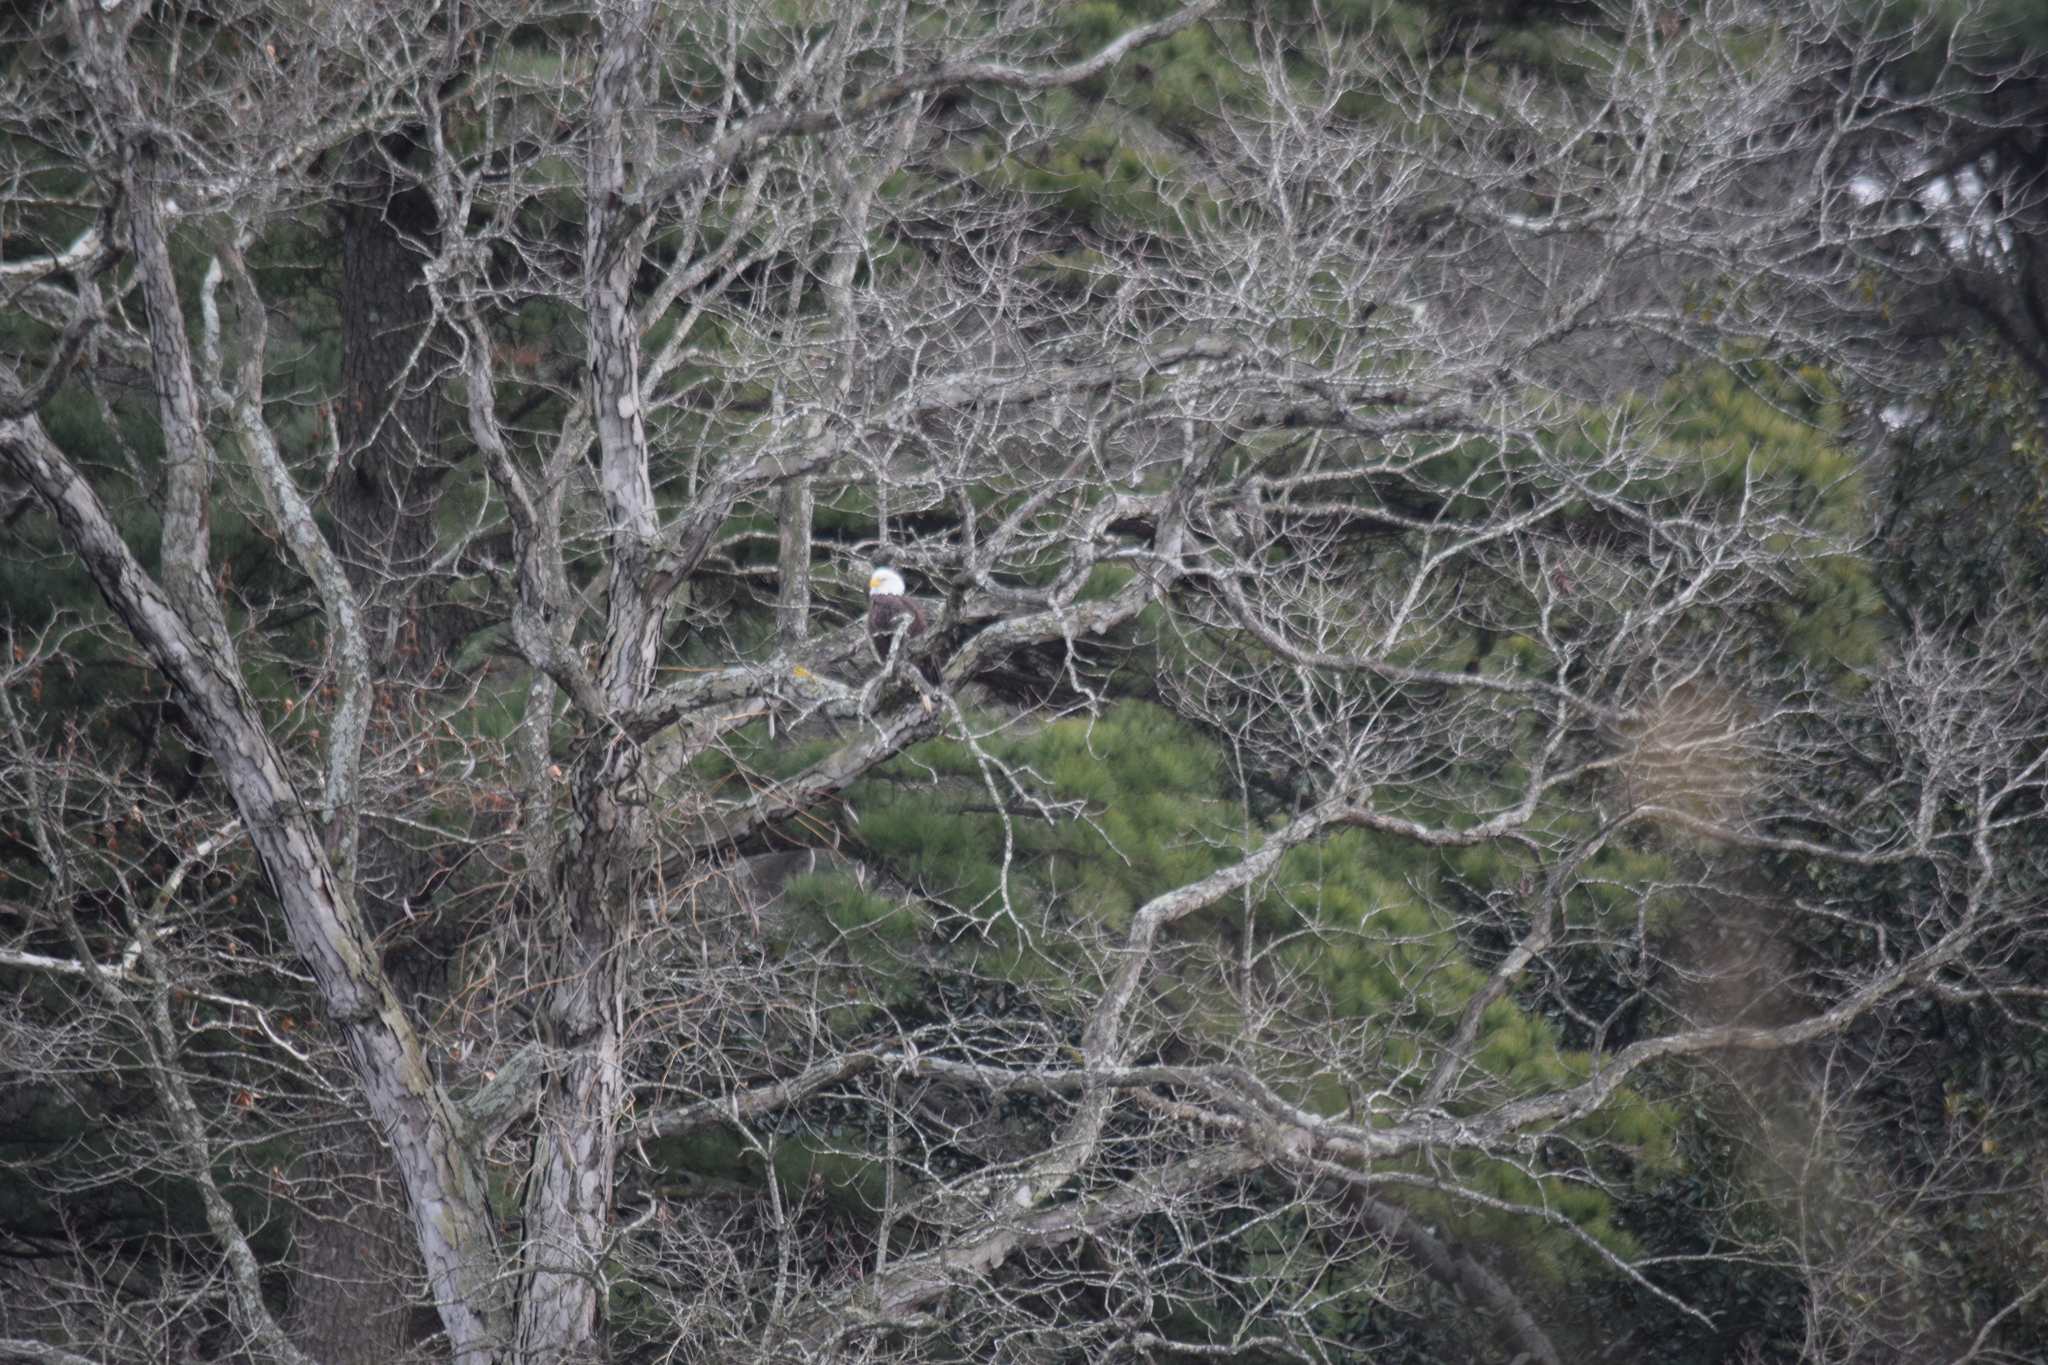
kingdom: Animalia
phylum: Chordata
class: Aves
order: Accipitriformes
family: Accipitridae
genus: Haliaeetus
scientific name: Haliaeetus leucocephalus
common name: Bald eagle
